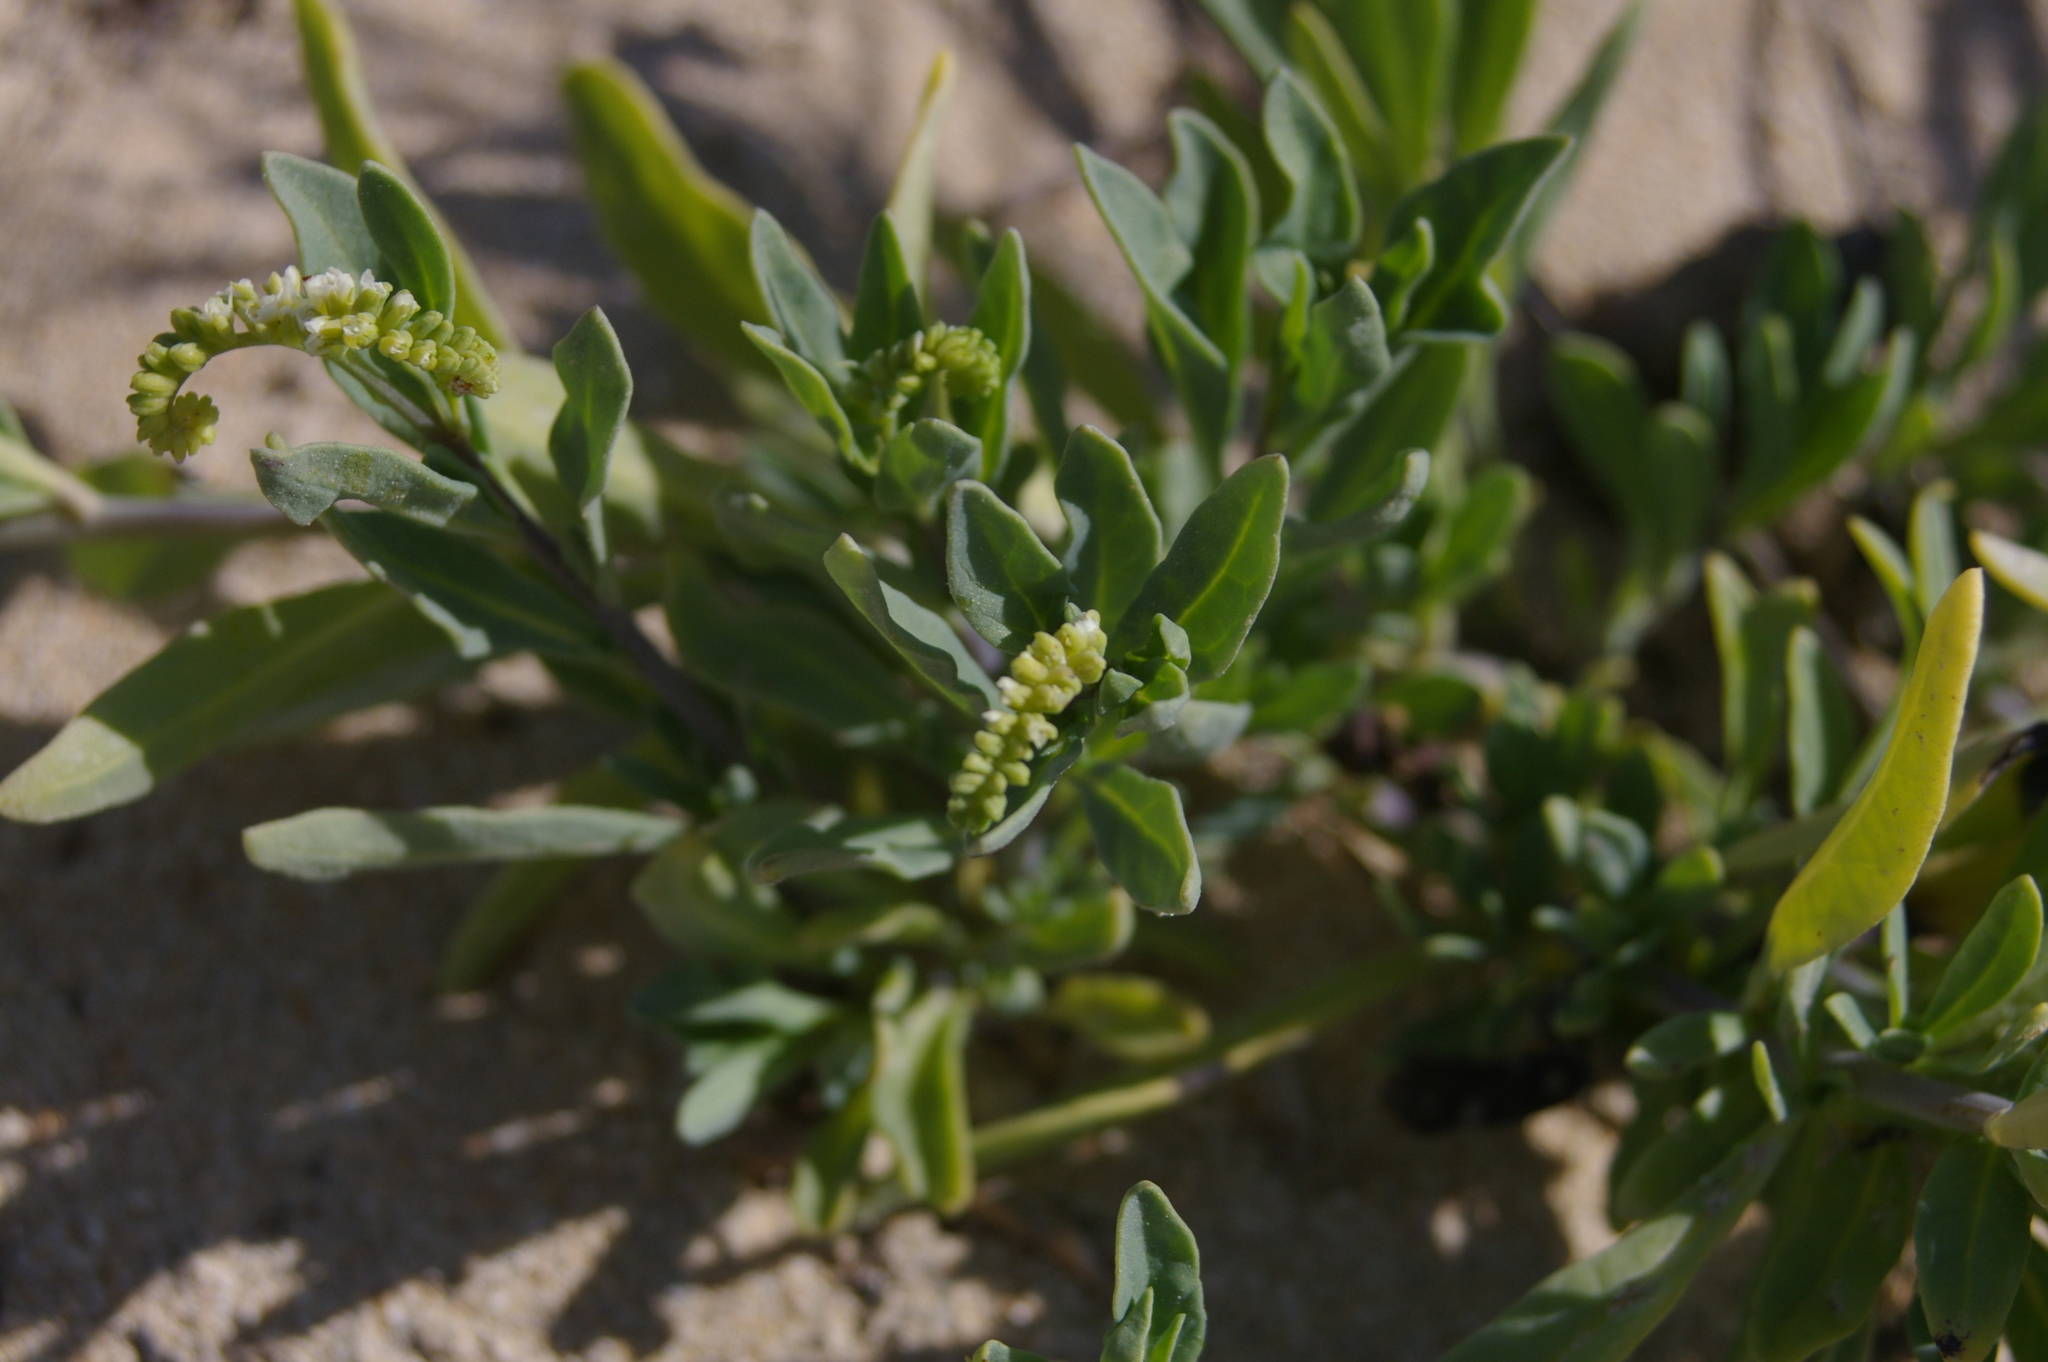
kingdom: Plantae
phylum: Tracheophyta
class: Magnoliopsida
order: Boraginales
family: Heliotropiaceae
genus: Heliotropium
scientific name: Heliotropium curassavicum
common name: Seaside heliotrope
